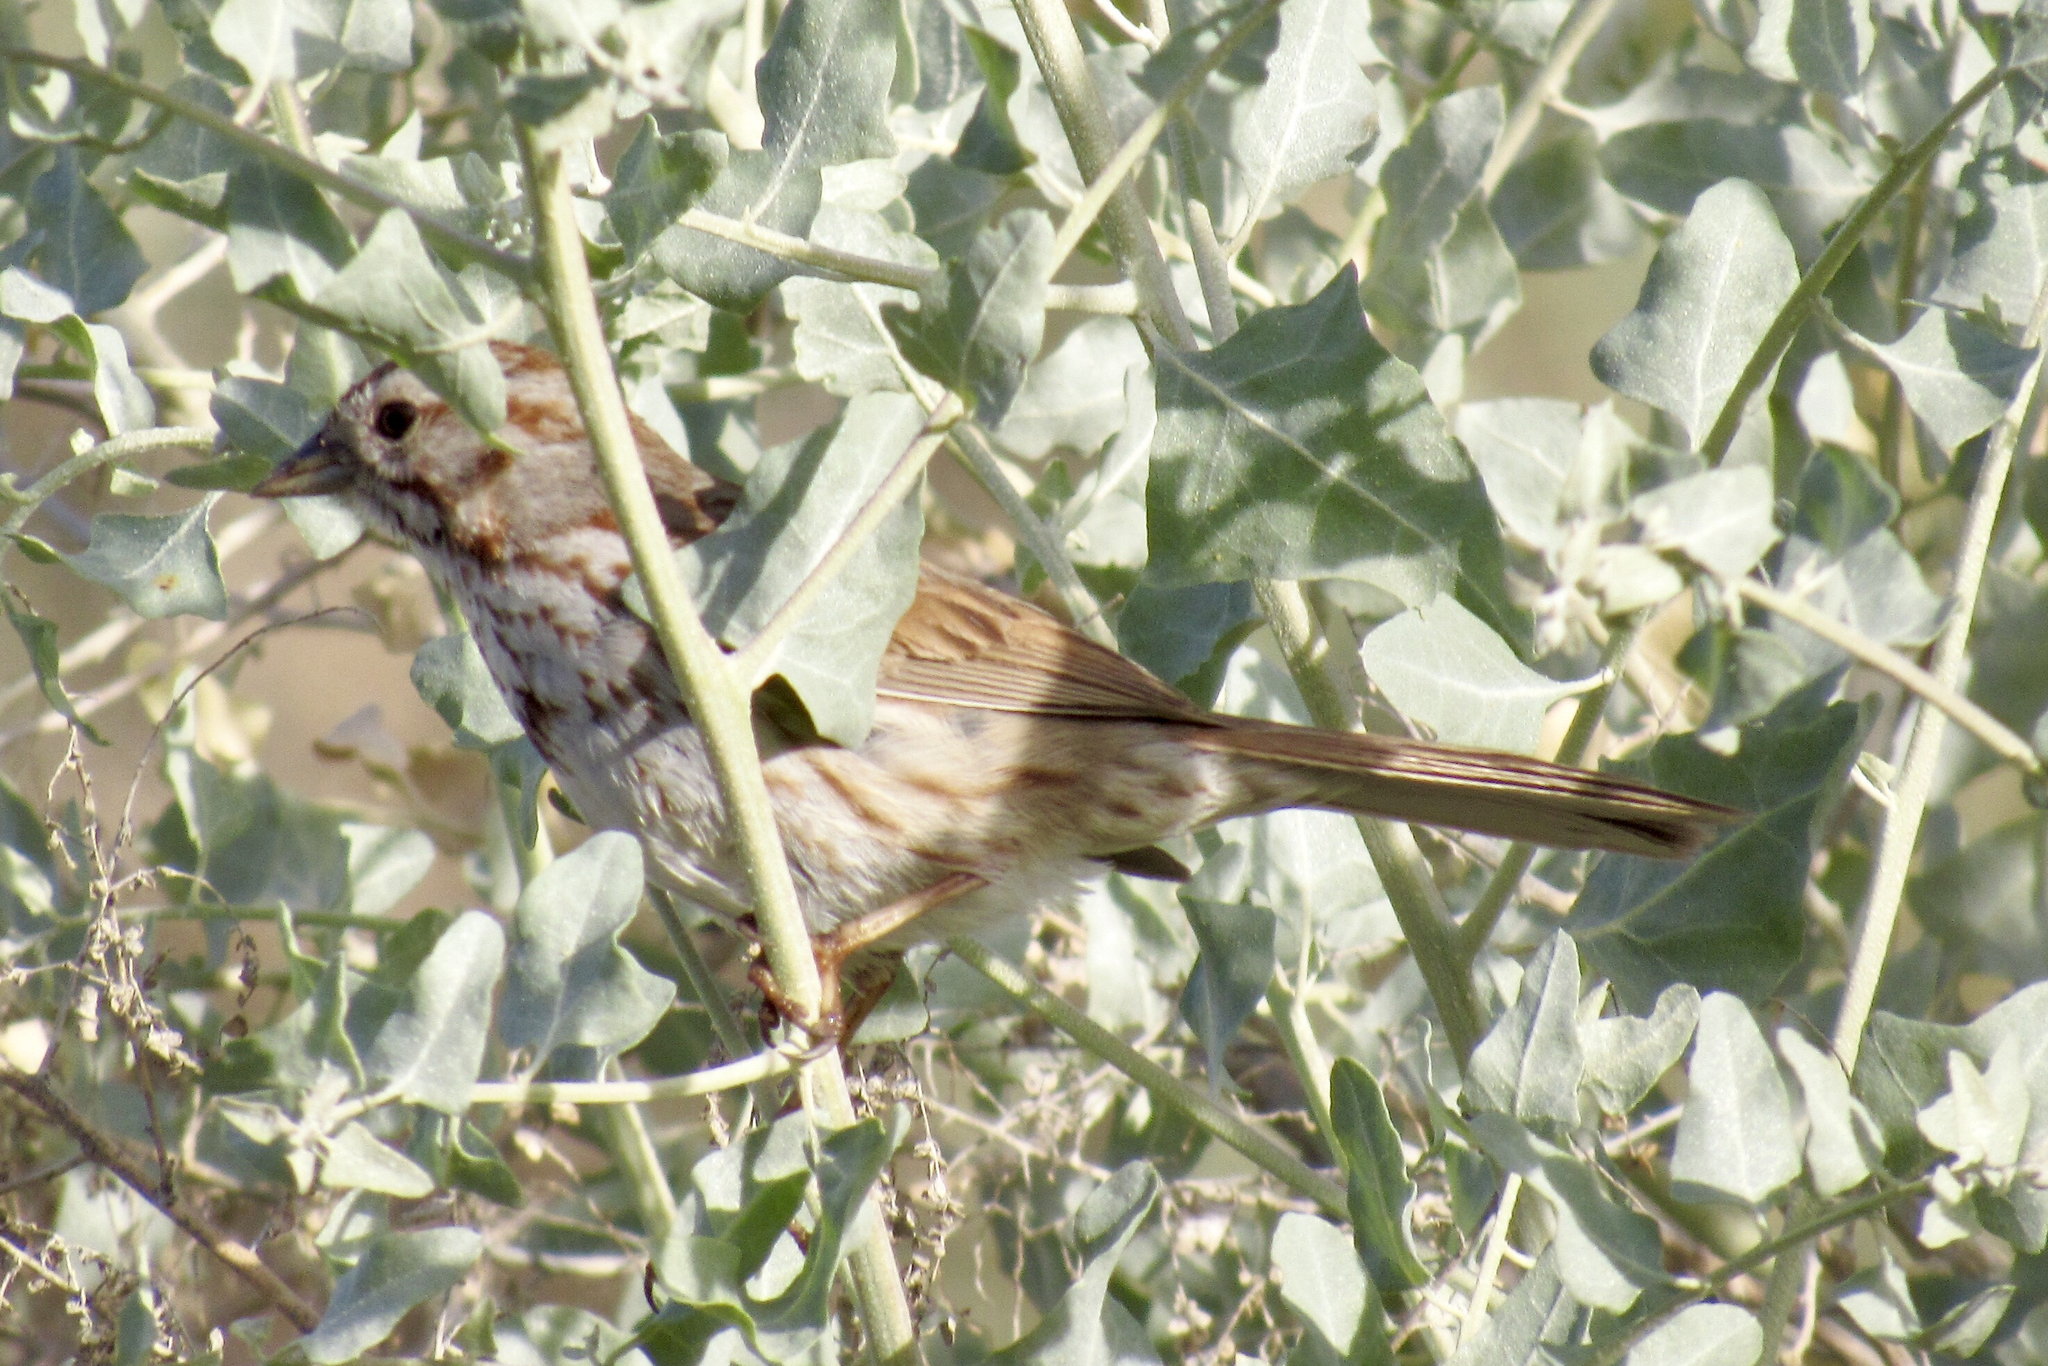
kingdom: Animalia
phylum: Chordata
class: Aves
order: Passeriformes
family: Passerellidae
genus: Melospiza
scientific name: Melospiza melodia
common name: Song sparrow
